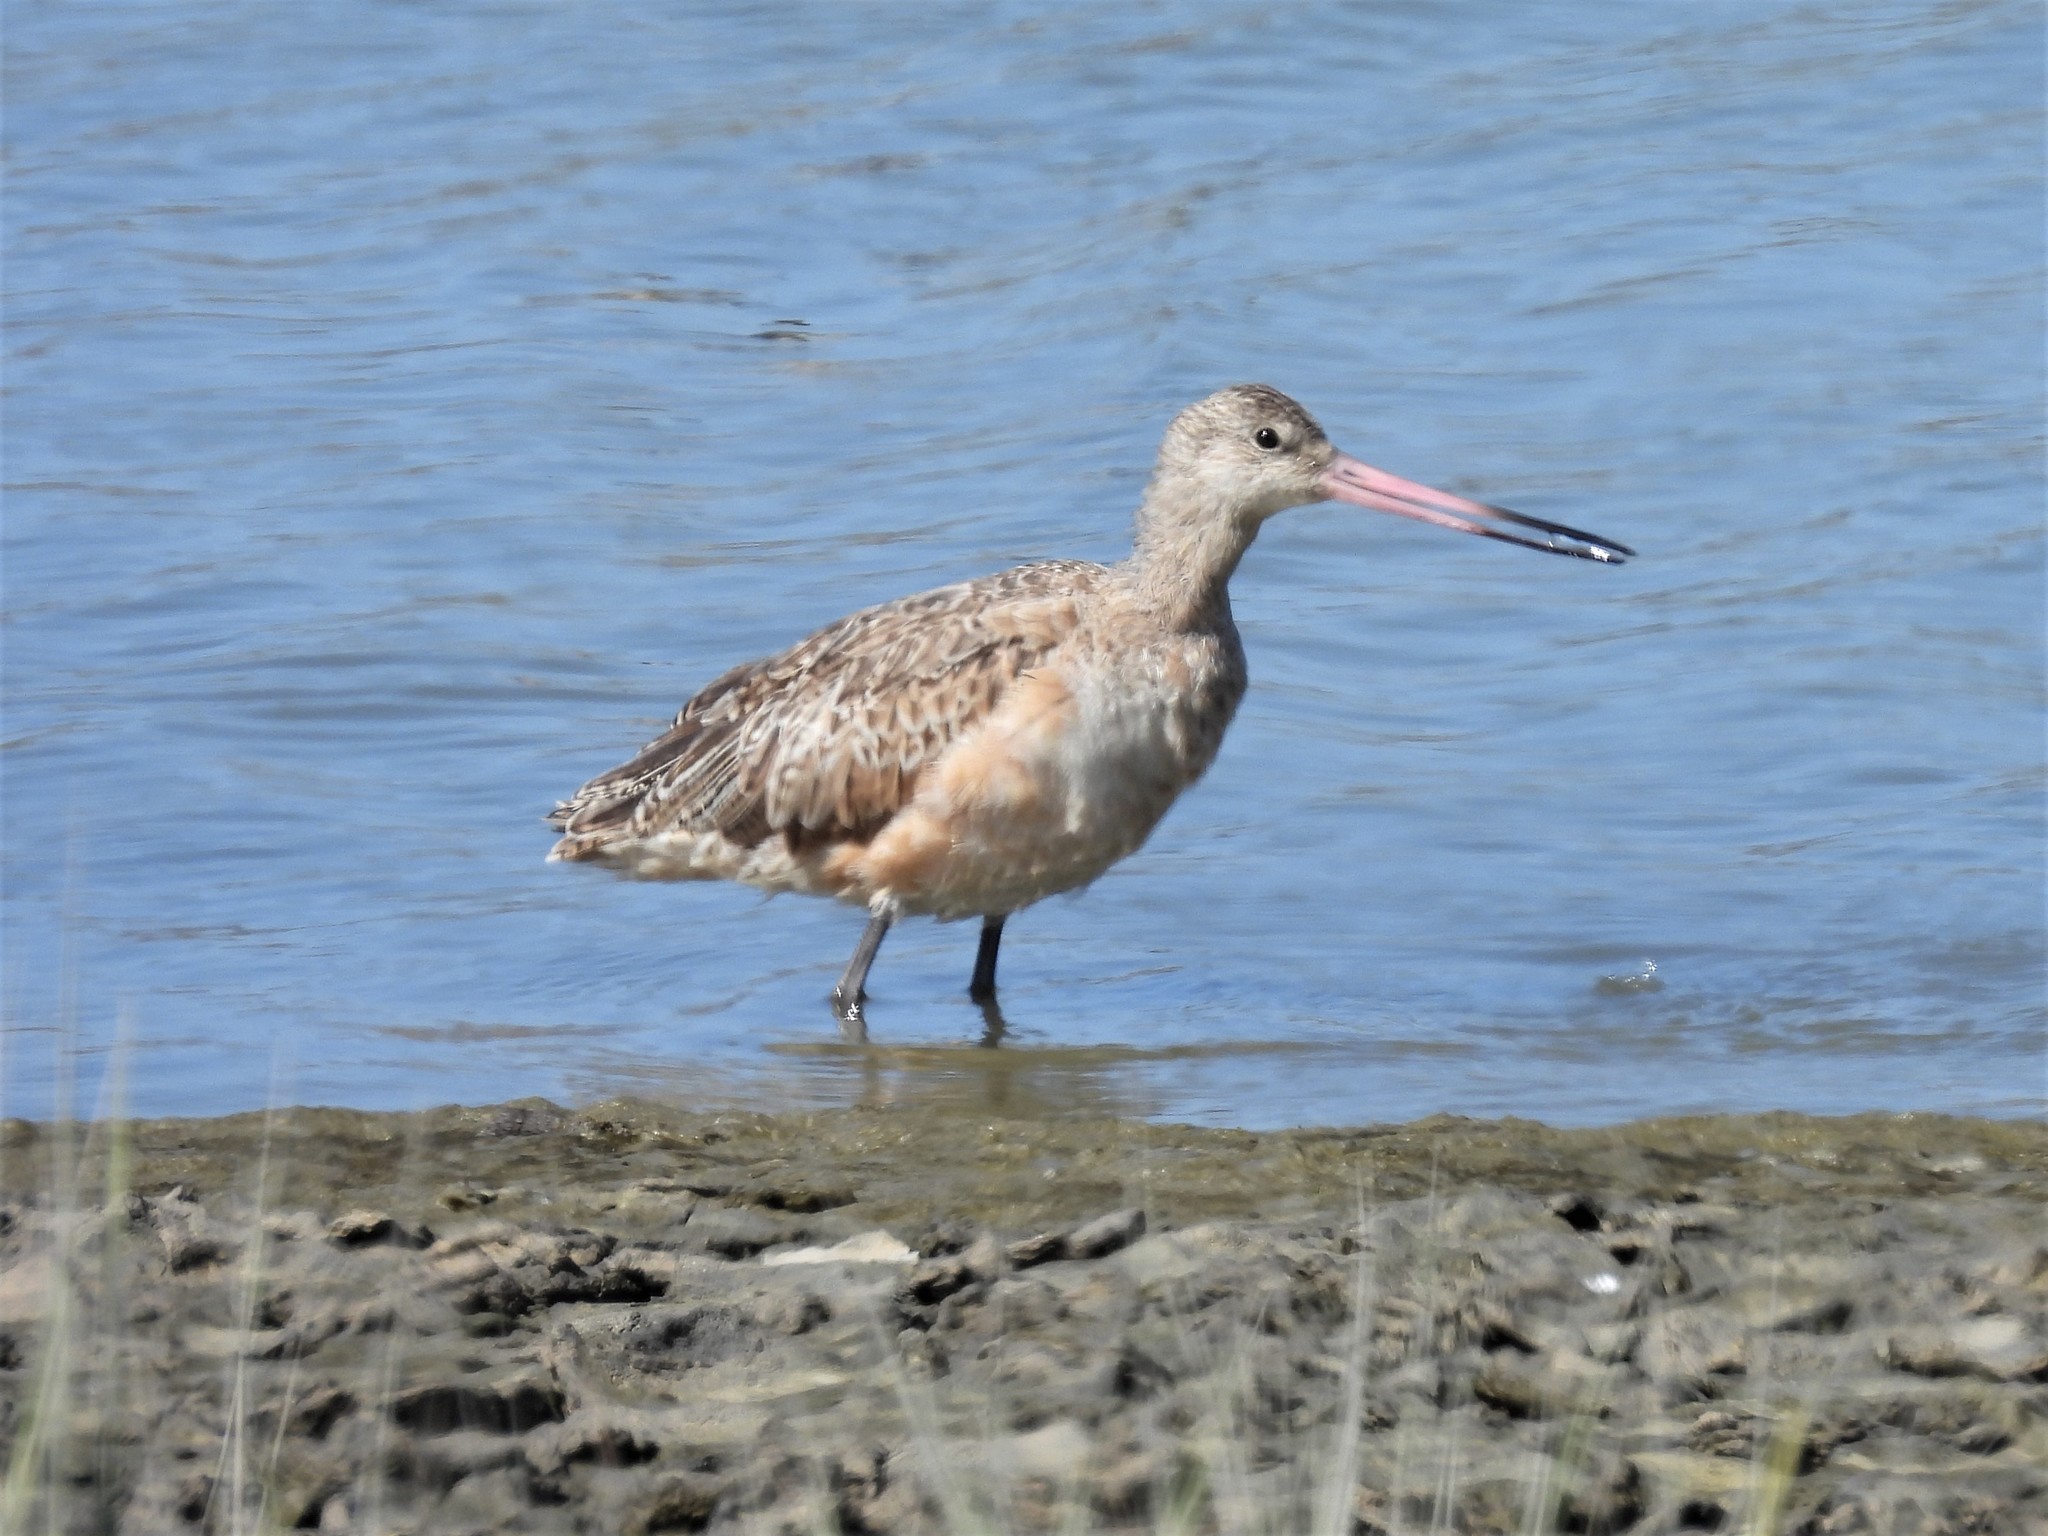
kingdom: Animalia
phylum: Chordata
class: Aves
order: Charadriiformes
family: Scolopacidae
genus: Limosa
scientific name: Limosa fedoa
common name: Marbled godwit
